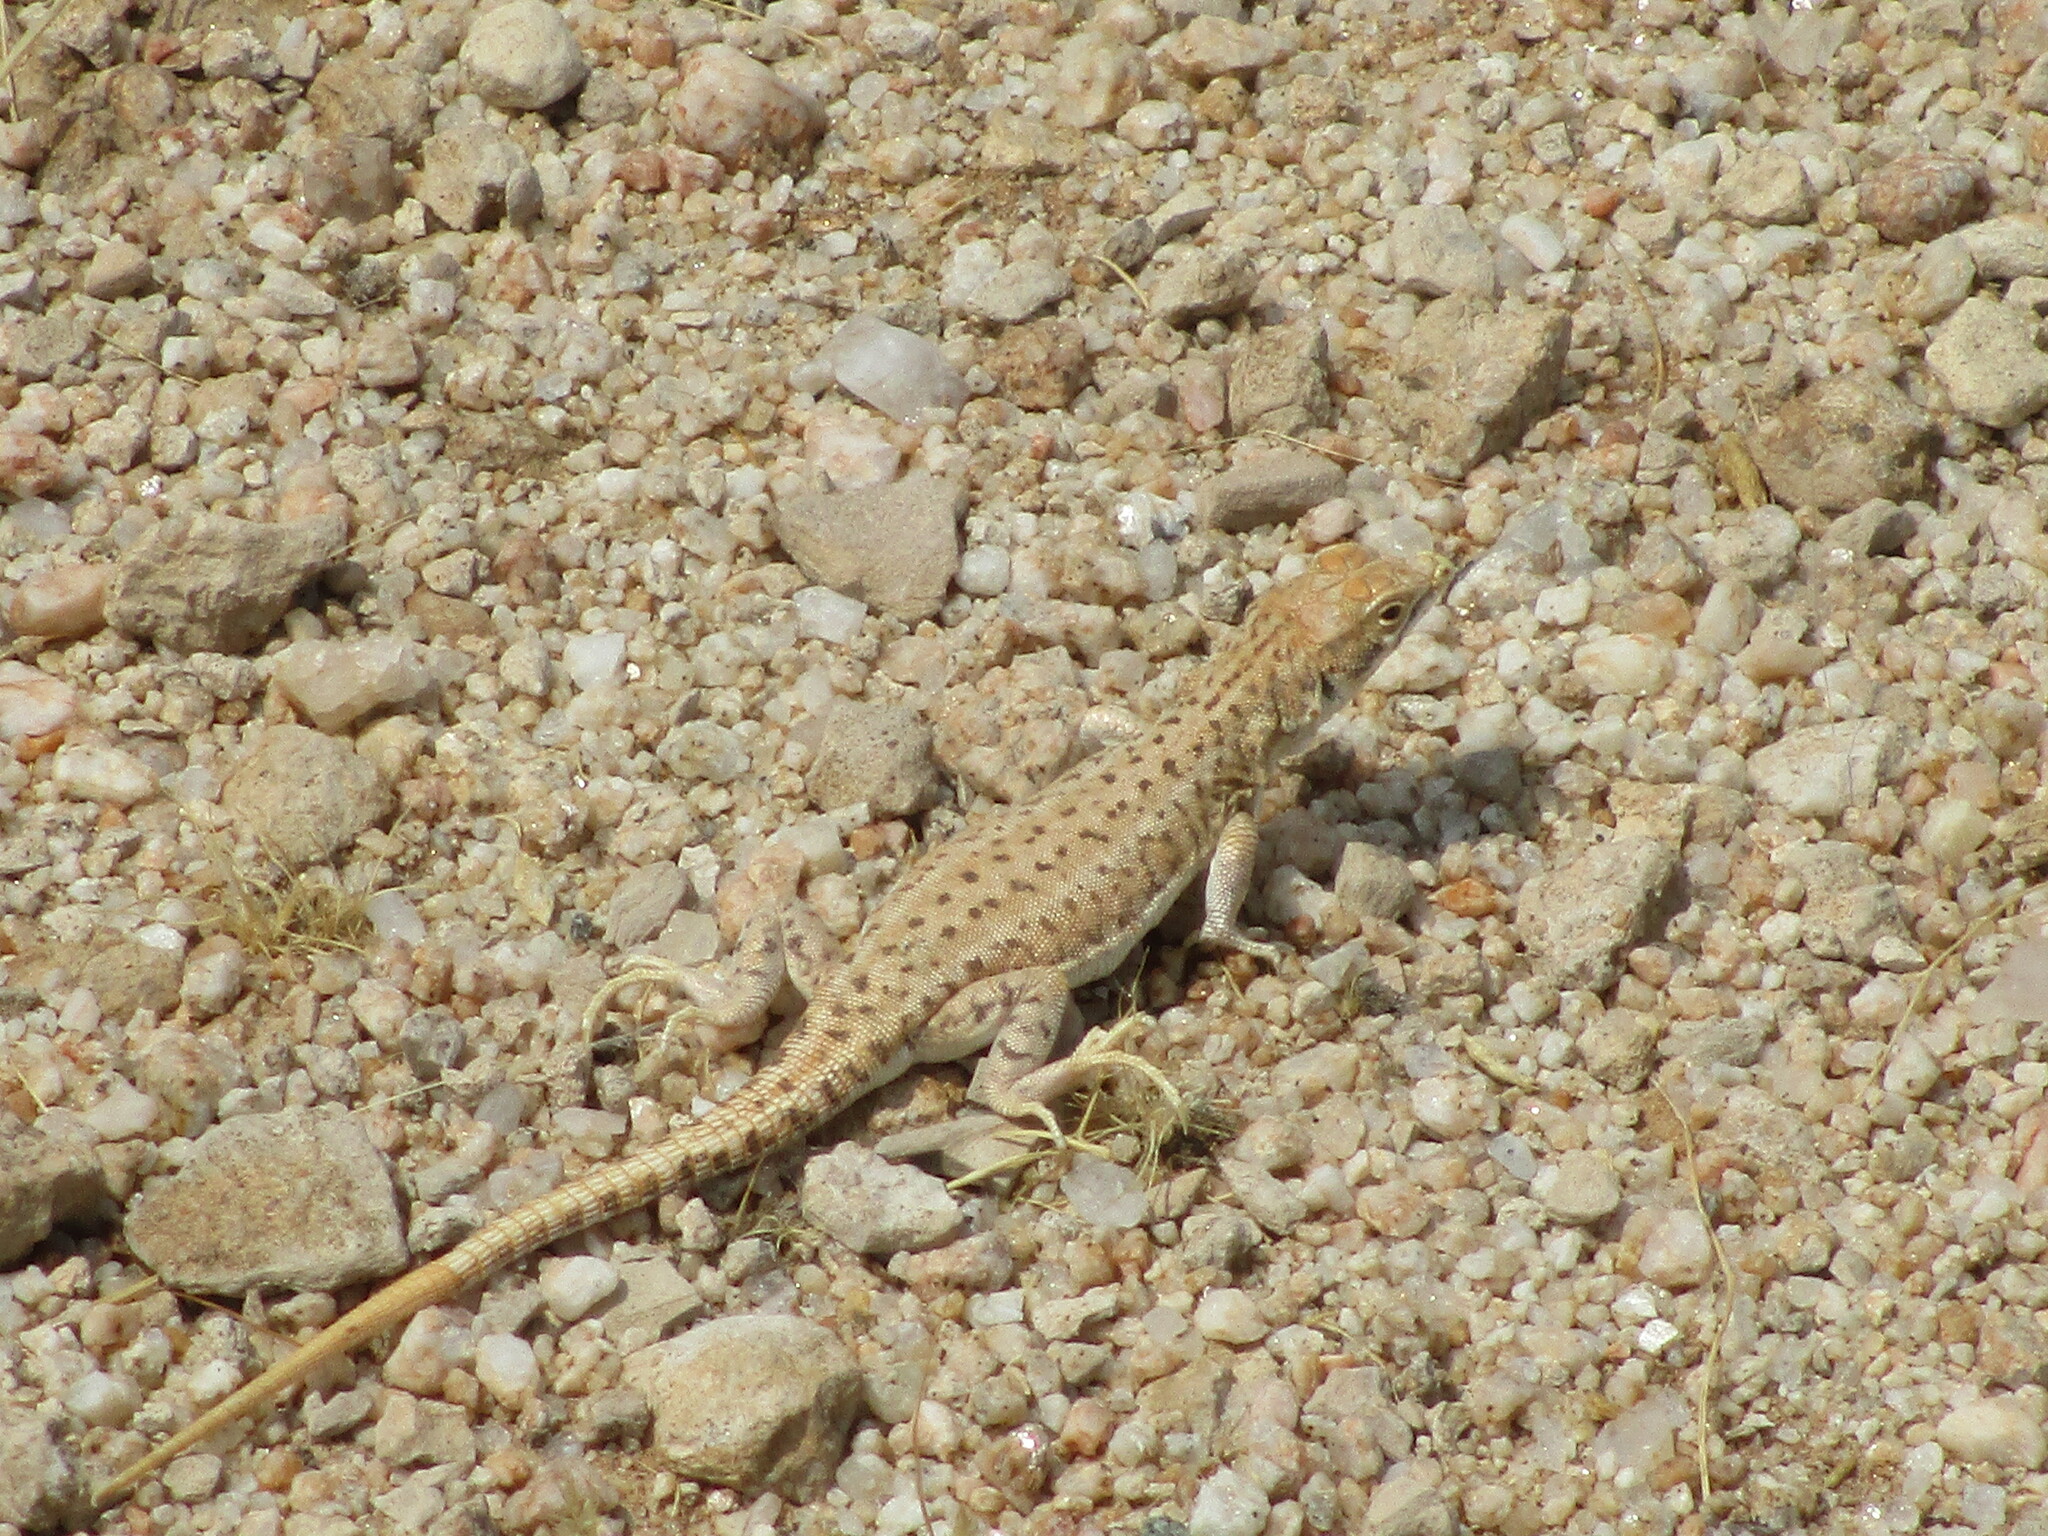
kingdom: Animalia
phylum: Chordata
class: Squamata
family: Lacertidae
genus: Meroles
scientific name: Meroles suborbitalis
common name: Spotted sand lizard
